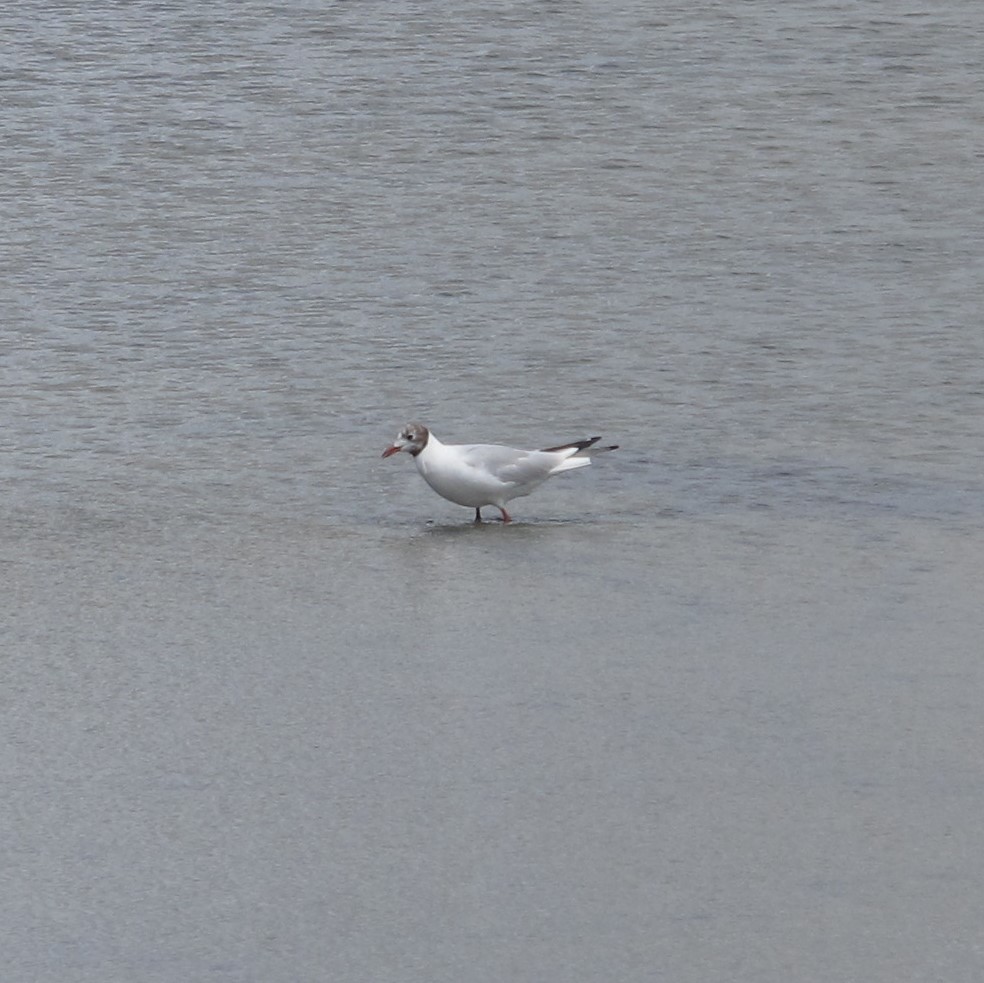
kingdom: Animalia
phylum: Chordata
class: Aves
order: Charadriiformes
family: Laridae
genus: Chroicocephalus
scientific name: Chroicocephalus ridibundus
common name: Black-headed gull
